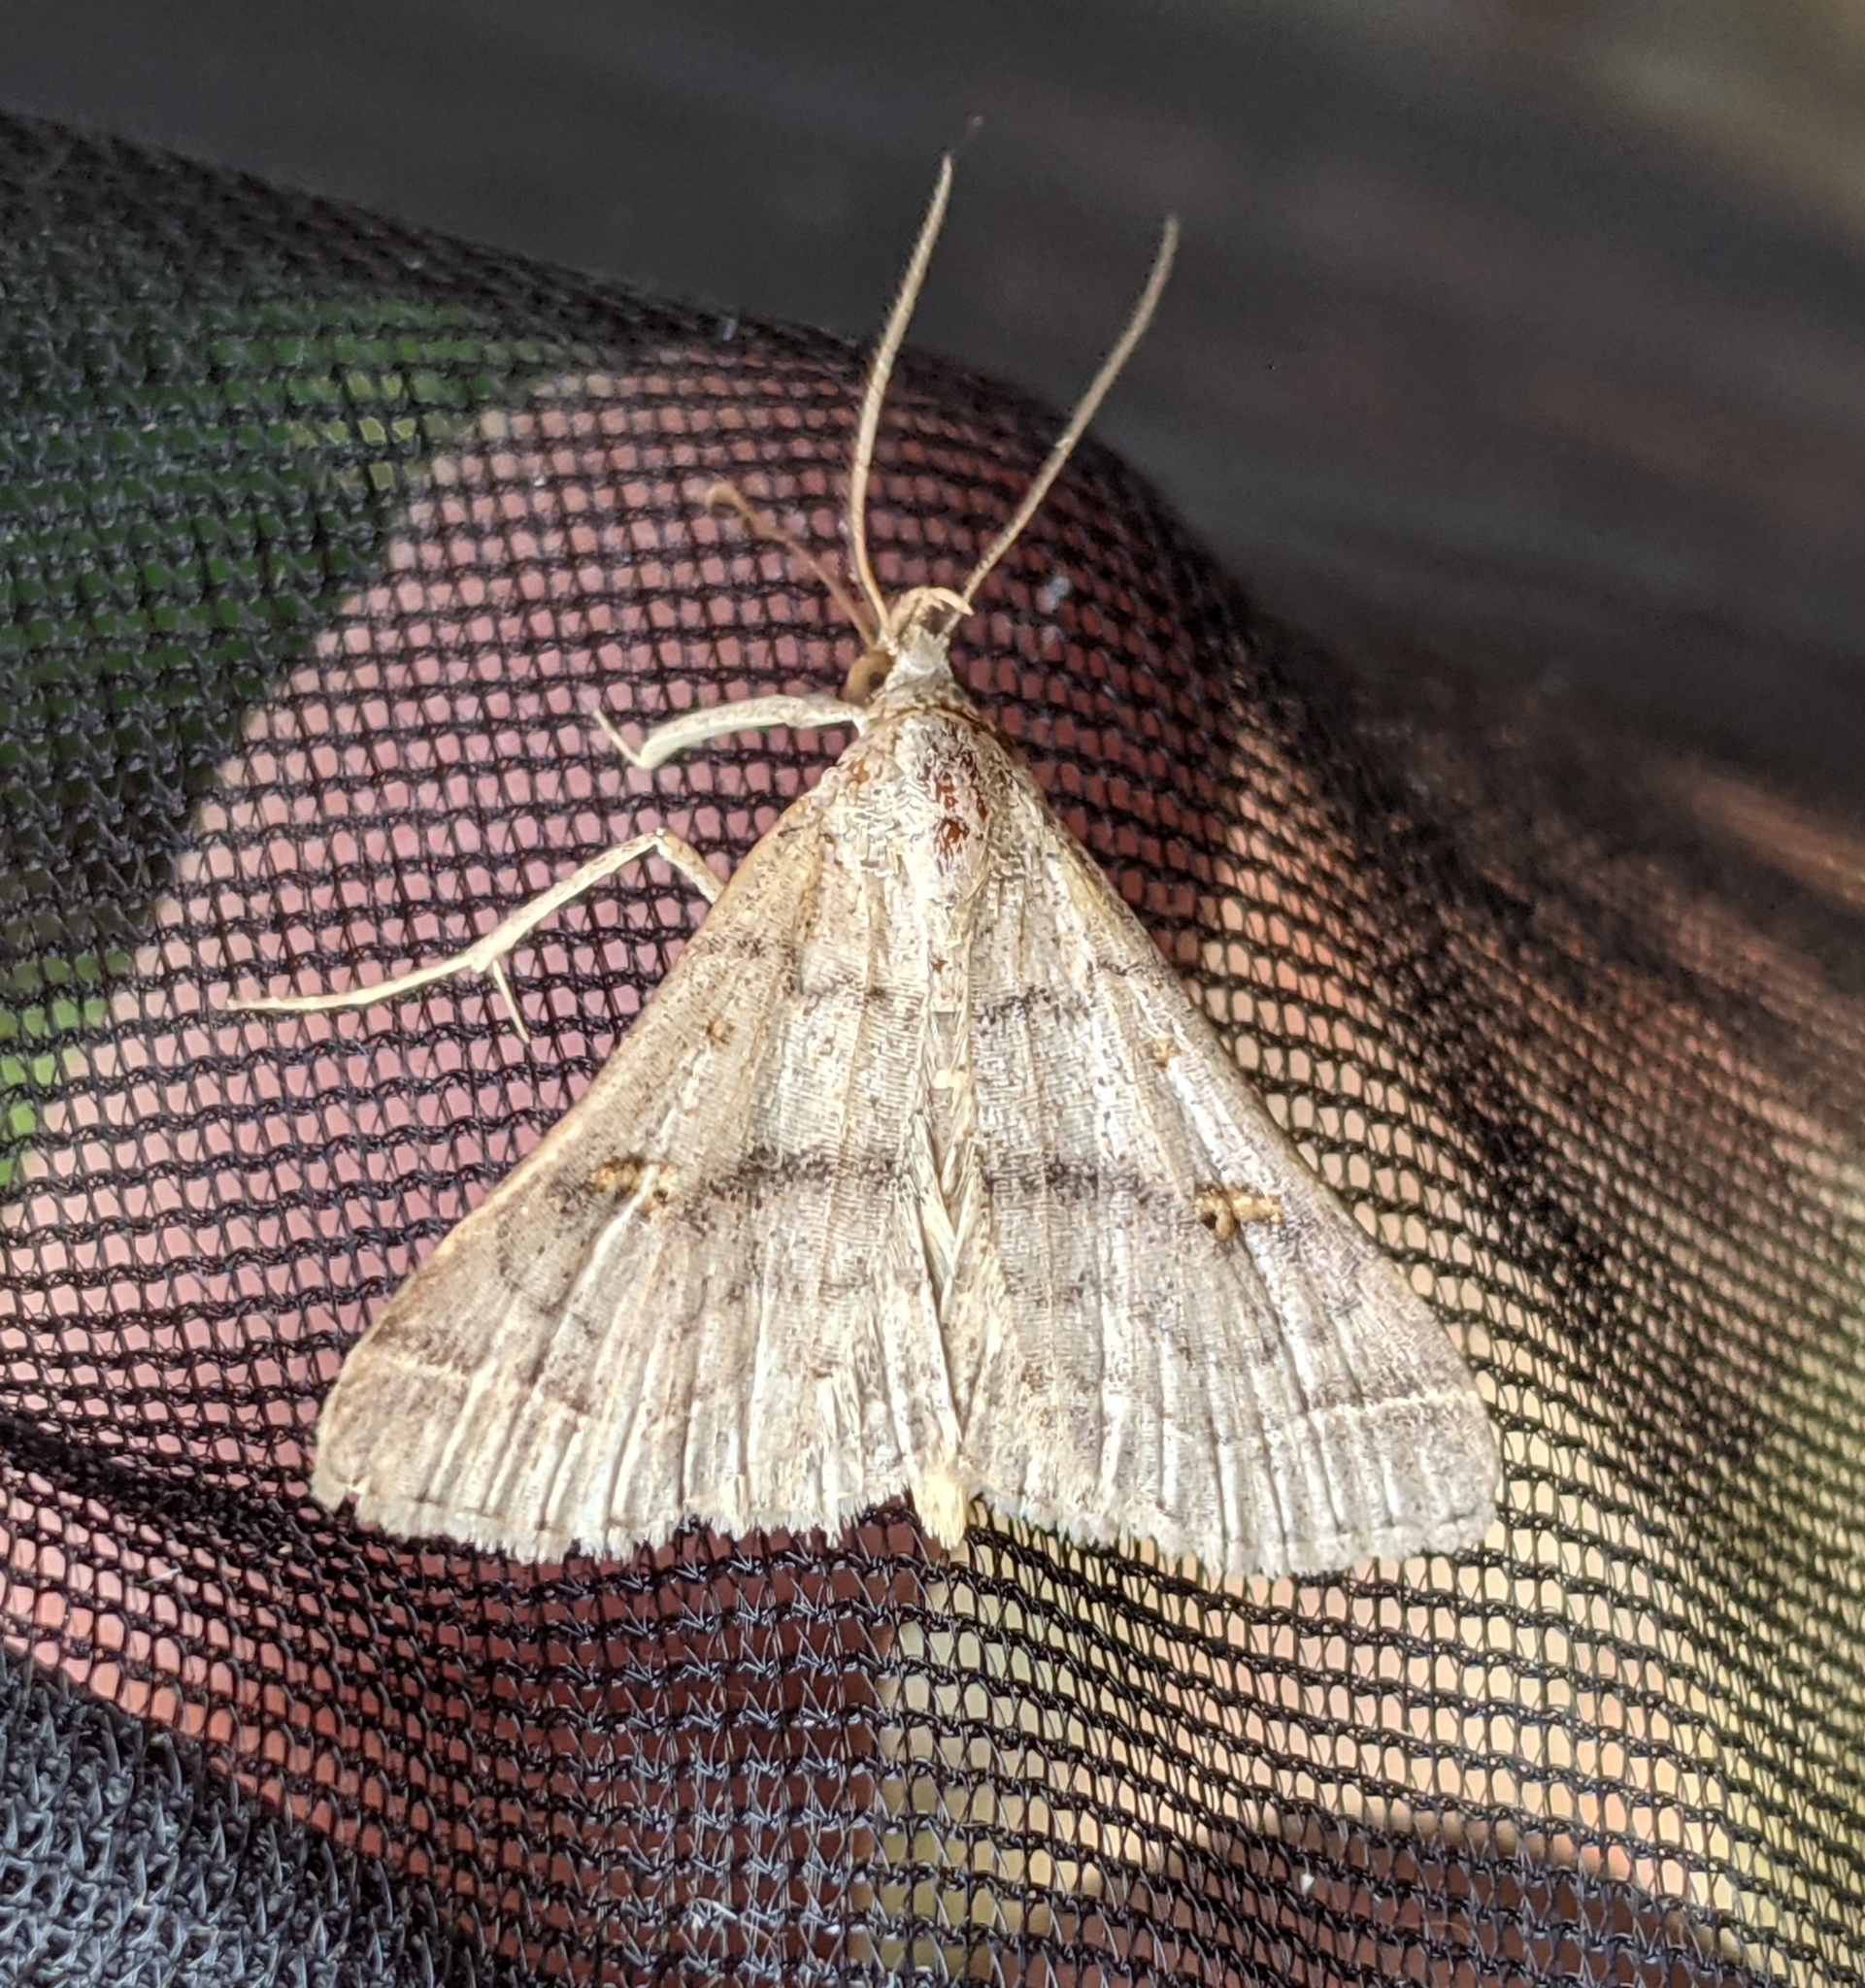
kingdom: Animalia
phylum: Arthropoda
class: Insecta
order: Lepidoptera
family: Erebidae
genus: Bleptina
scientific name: Bleptina caradrinalis
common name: Bent-winged owlet
